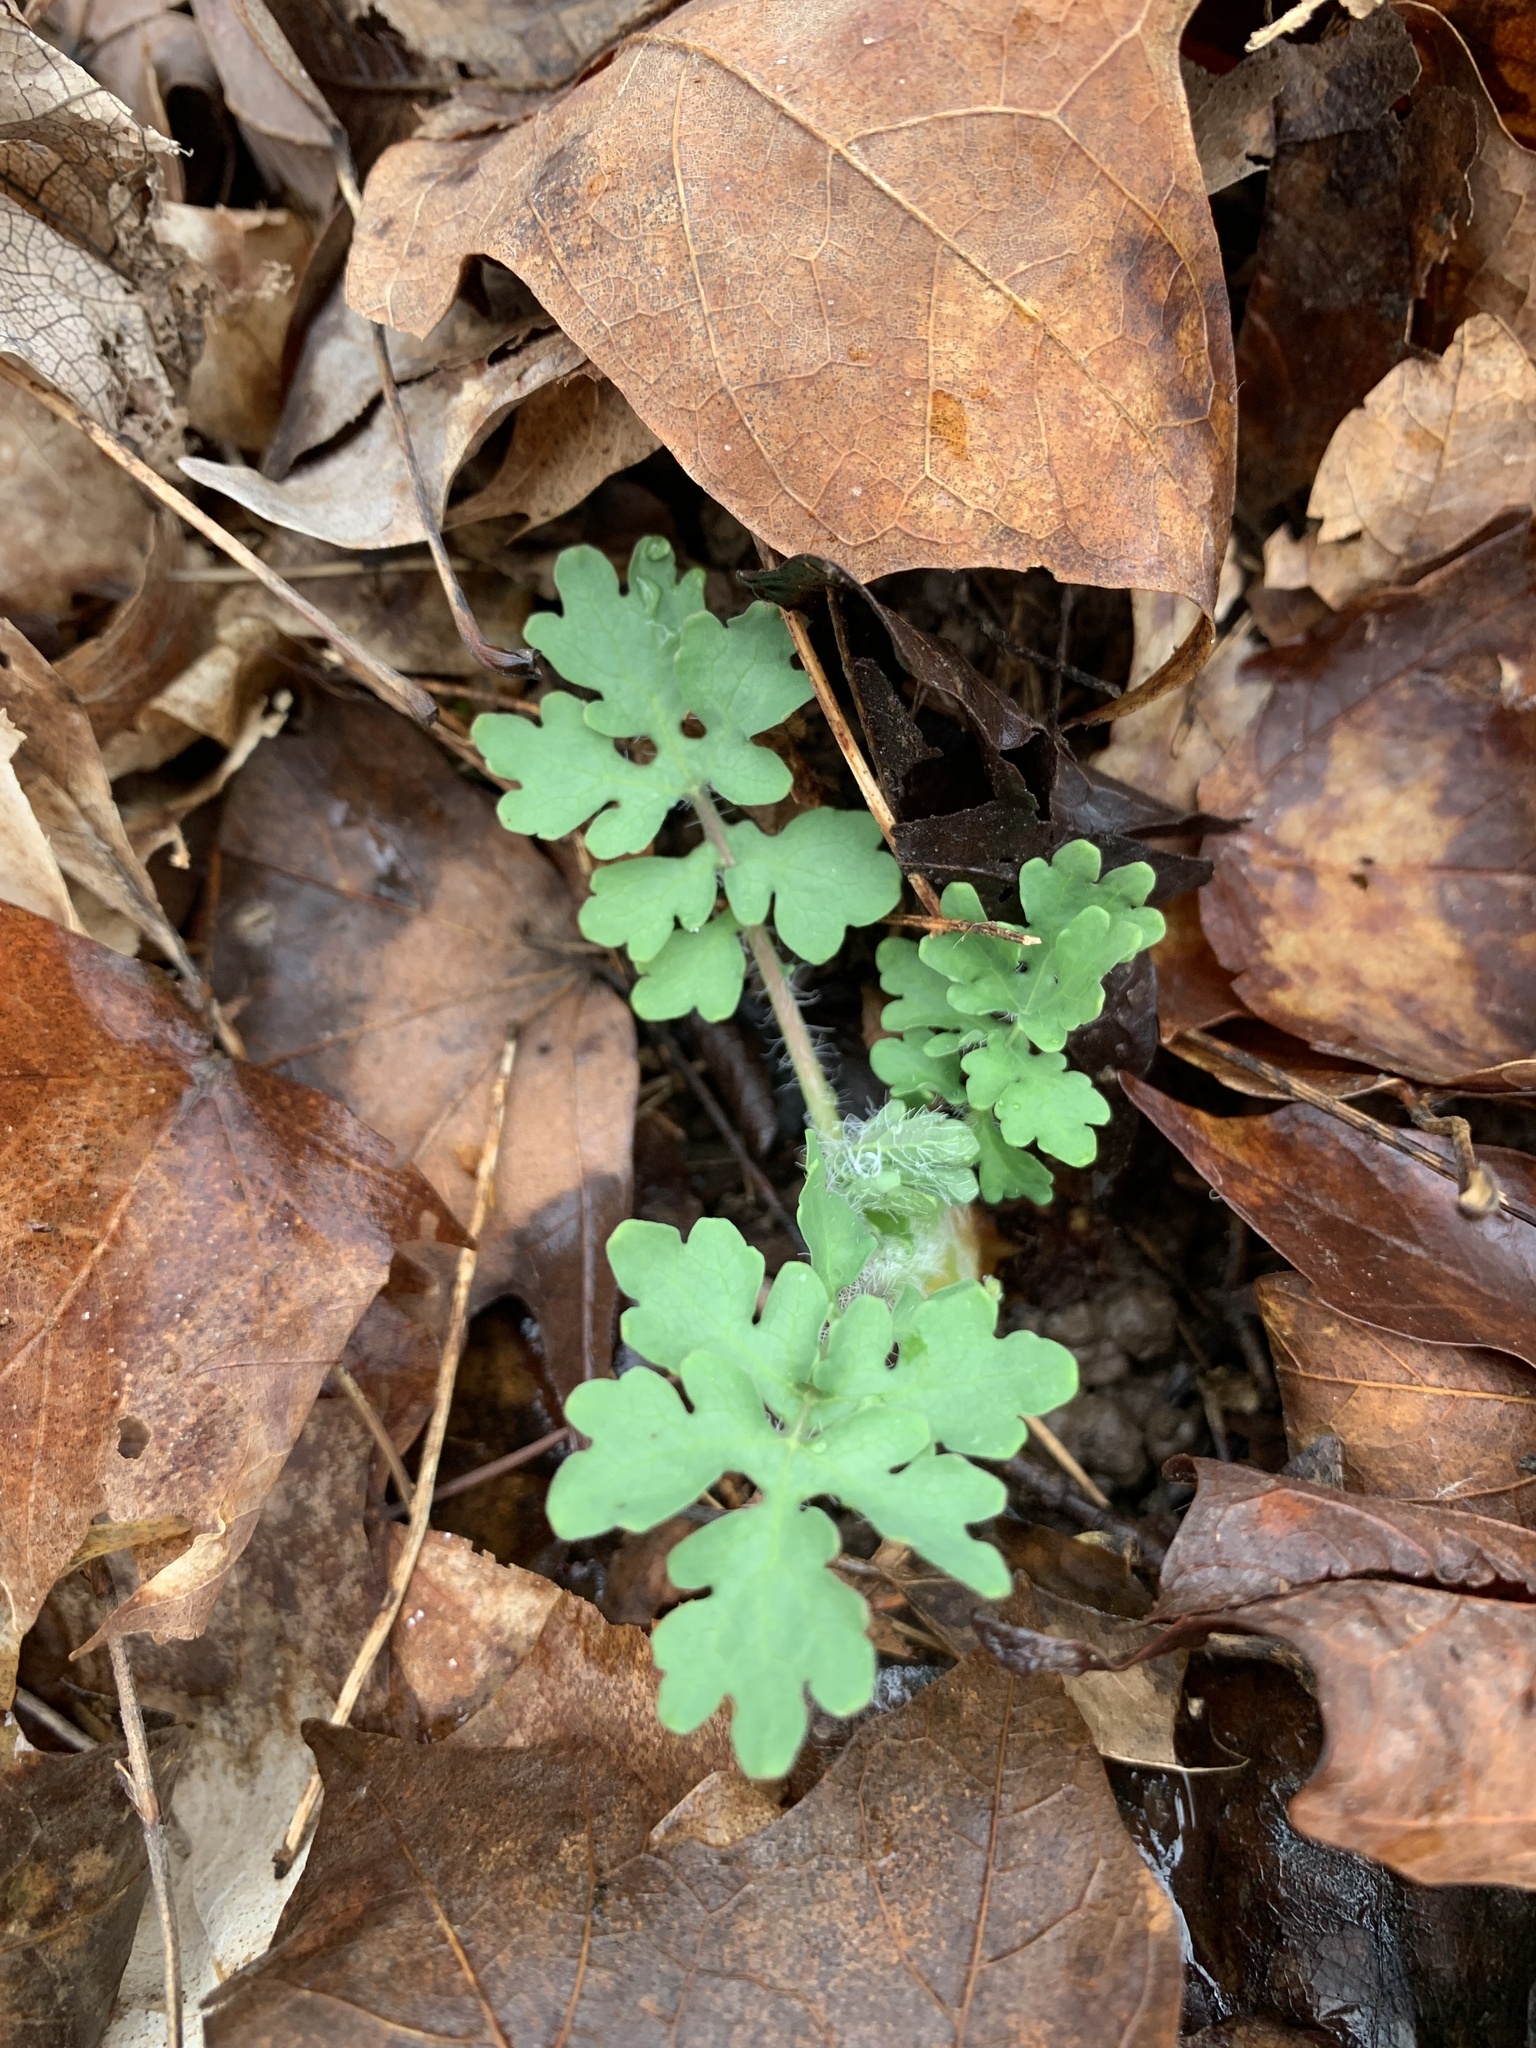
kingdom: Plantae
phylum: Tracheophyta
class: Magnoliopsida
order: Ranunculales
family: Papaveraceae
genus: Stylophorum
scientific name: Stylophorum diphyllum
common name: Celandine poppy
